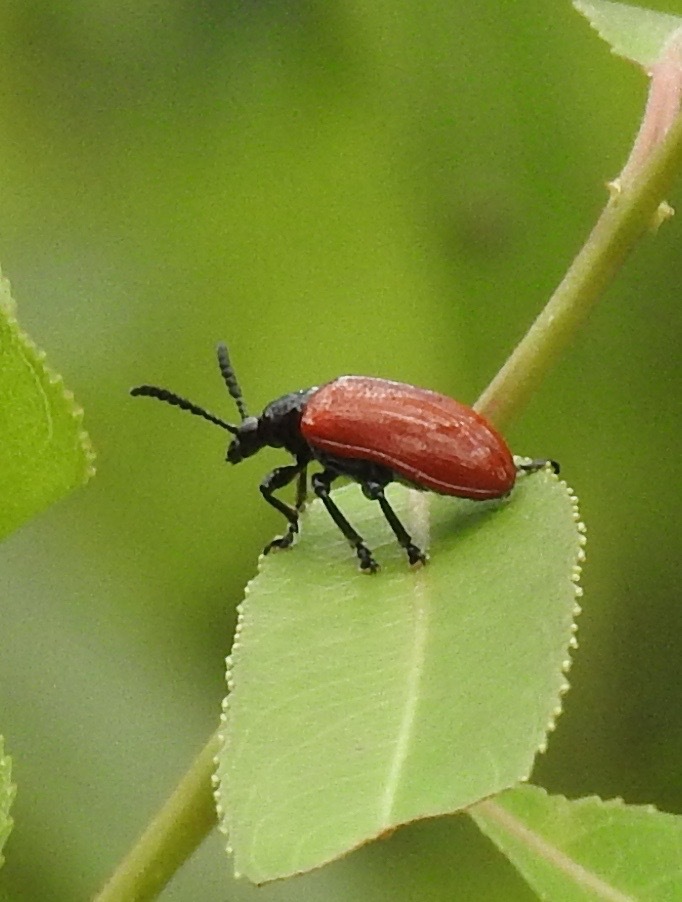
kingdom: Animalia
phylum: Arthropoda
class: Insecta
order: Coleoptera
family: Chrysomelidae
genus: Lilioceris
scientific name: Lilioceris cheni
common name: Leaf beetle
